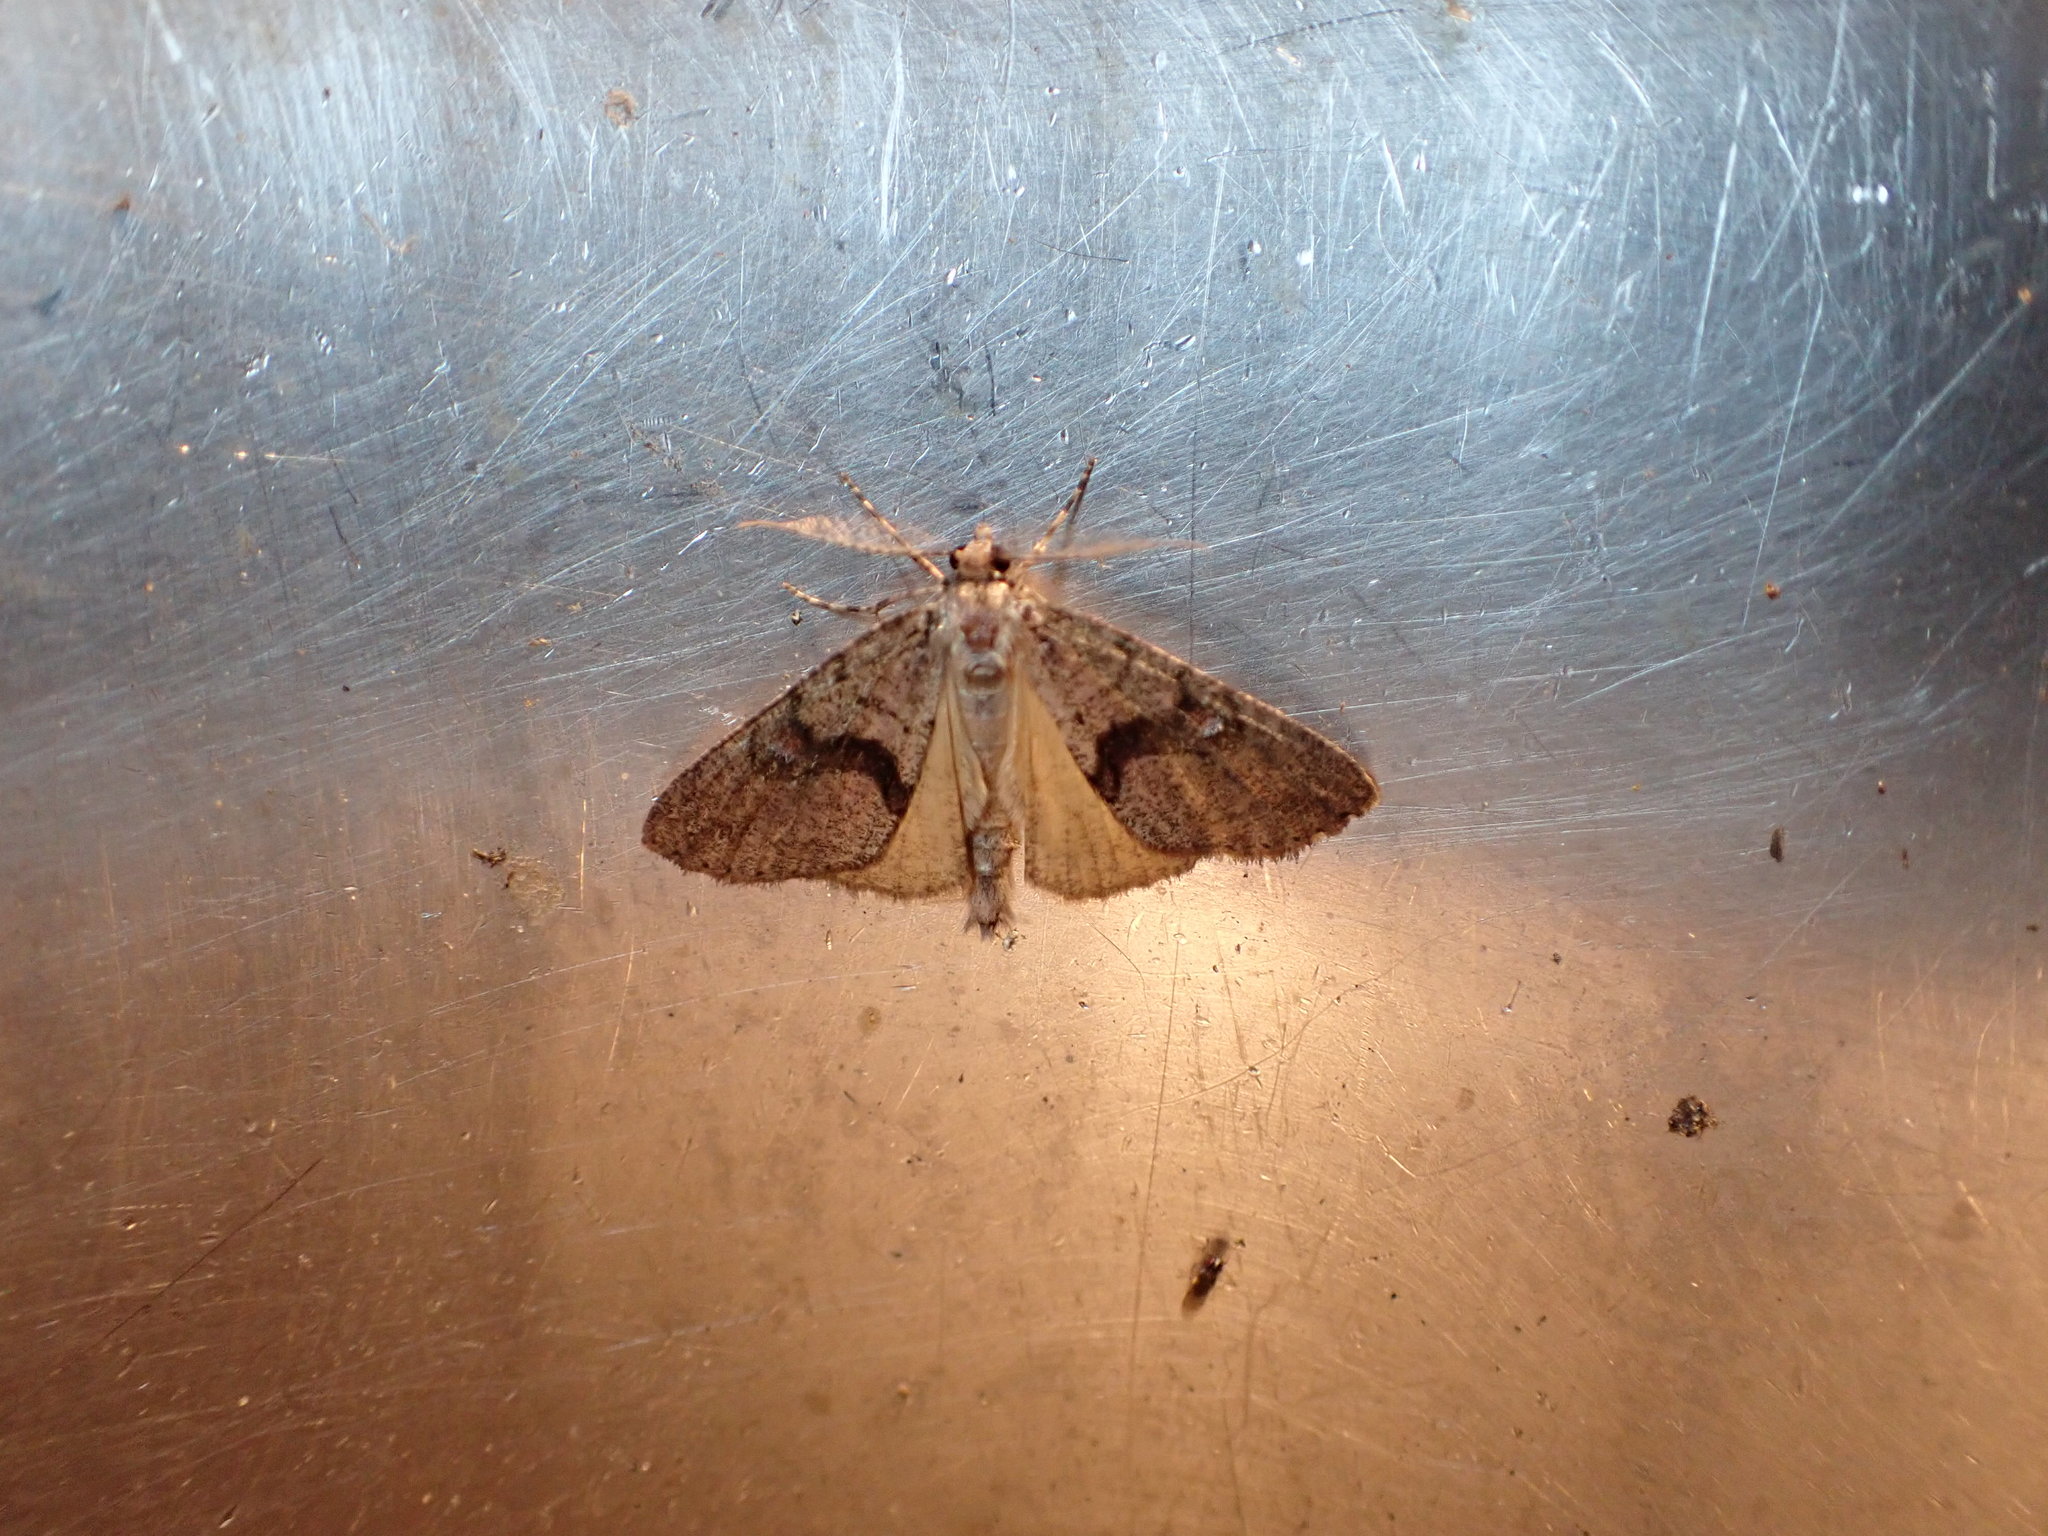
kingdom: Animalia
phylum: Arthropoda
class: Insecta
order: Lepidoptera
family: Geometridae
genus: Pseudocoremia
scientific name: Pseudocoremia suavis
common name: Common forest looper
